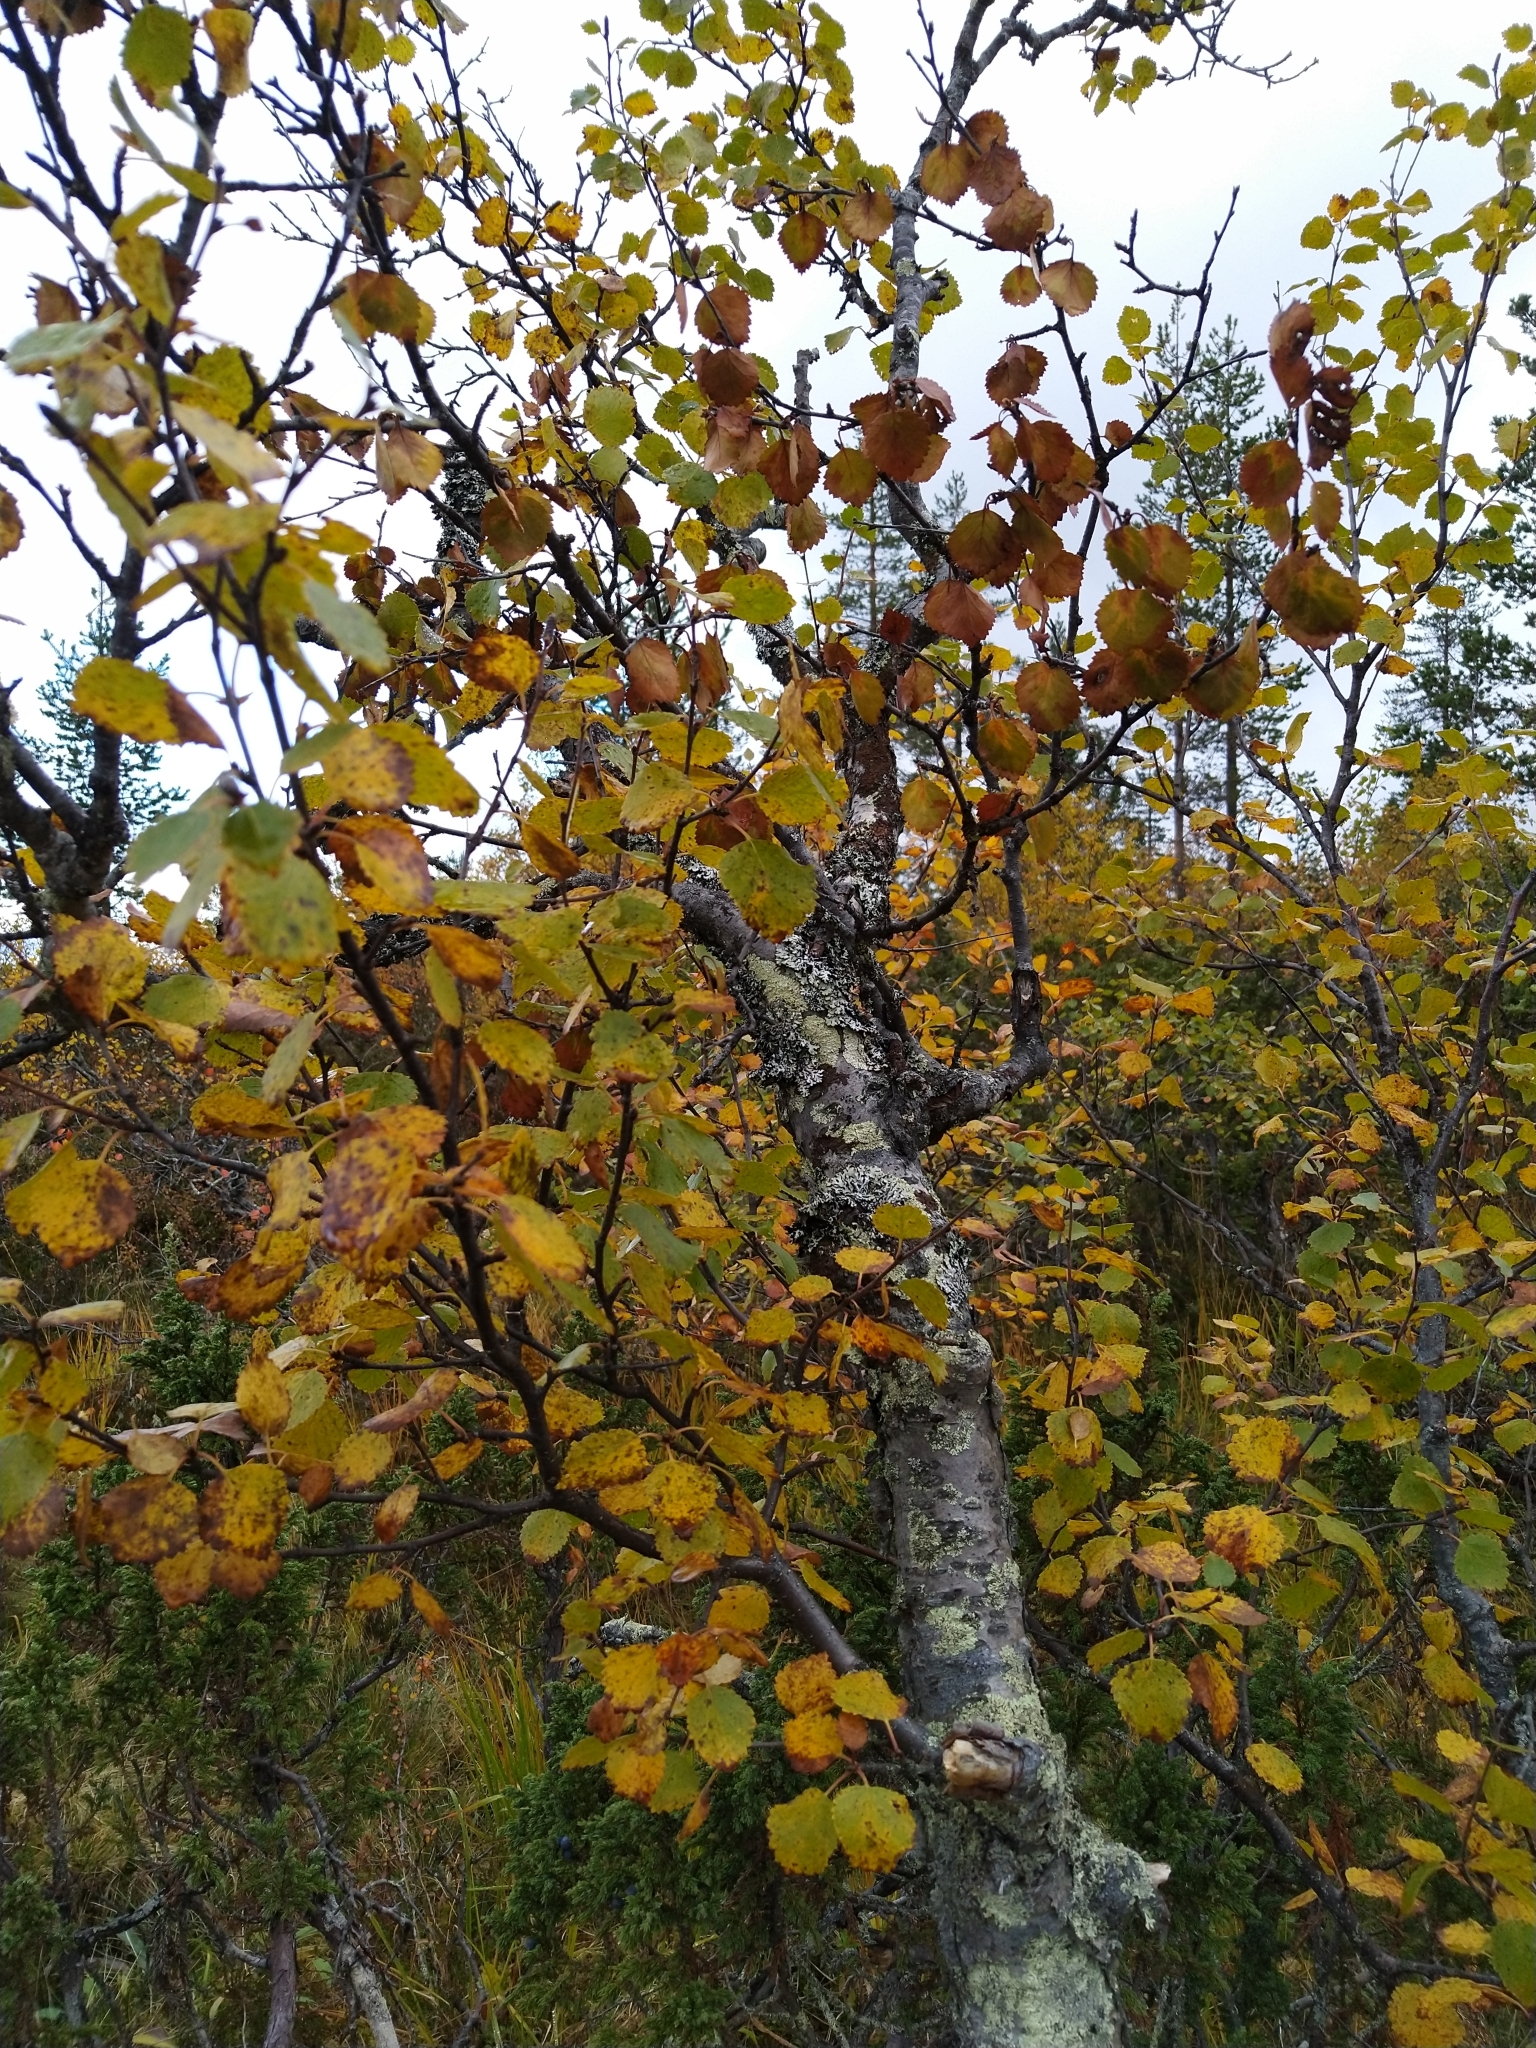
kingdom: Plantae
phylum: Tracheophyta
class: Magnoliopsida
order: Fagales
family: Betulaceae
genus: Betula
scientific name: Betula pubescens
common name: Downy birch
